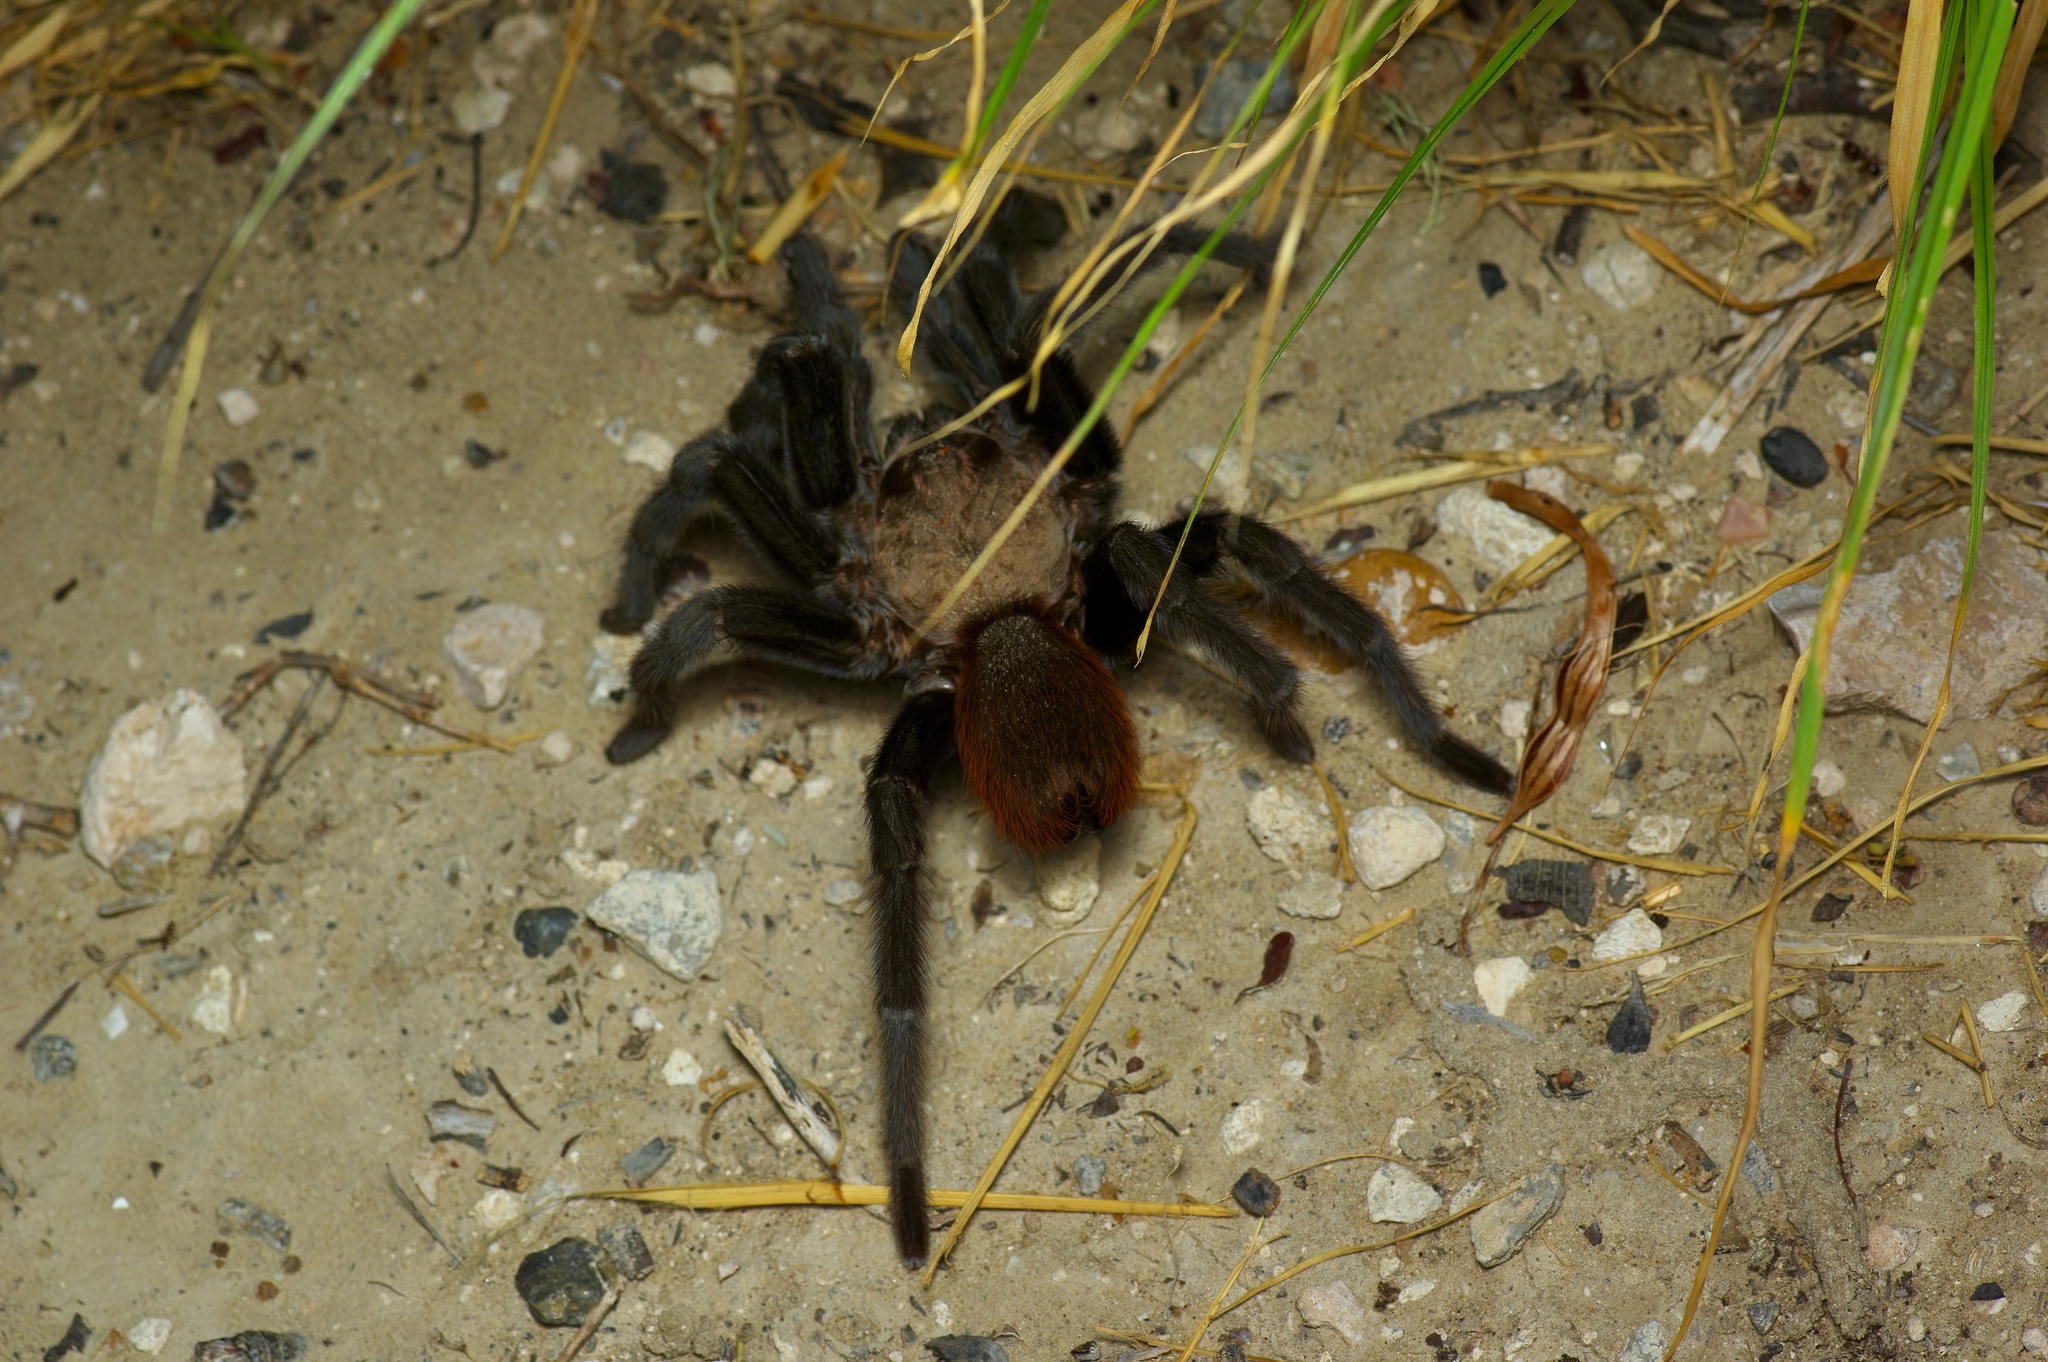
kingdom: Animalia
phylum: Arthropoda
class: Arachnida
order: Araneae
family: Theraphosidae
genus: Aphonopelma
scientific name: Aphonopelma anax
